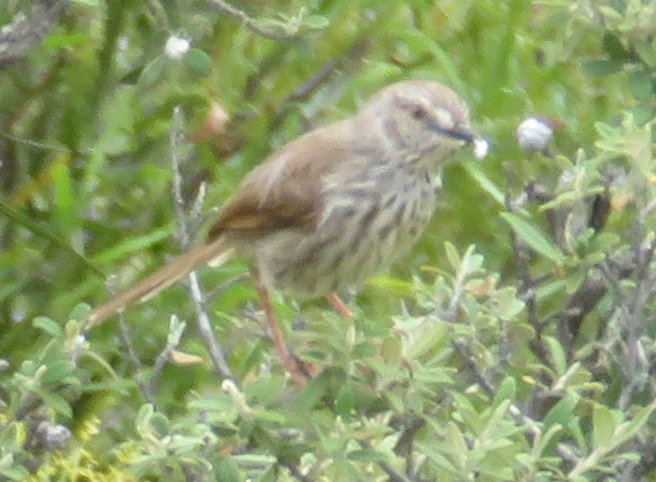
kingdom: Animalia
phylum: Chordata
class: Aves
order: Passeriformes
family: Cisticolidae
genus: Prinia
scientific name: Prinia maculosa
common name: Karoo prinia
